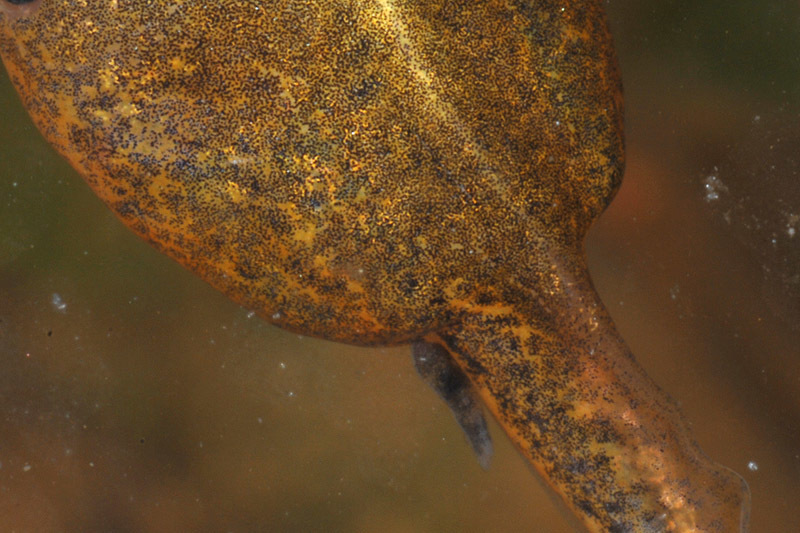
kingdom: Animalia
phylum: Chordata
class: Amphibia
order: Anura
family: Microhylidae
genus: Kaloula
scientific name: Kaloula borealis
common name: Boreal digging frog
